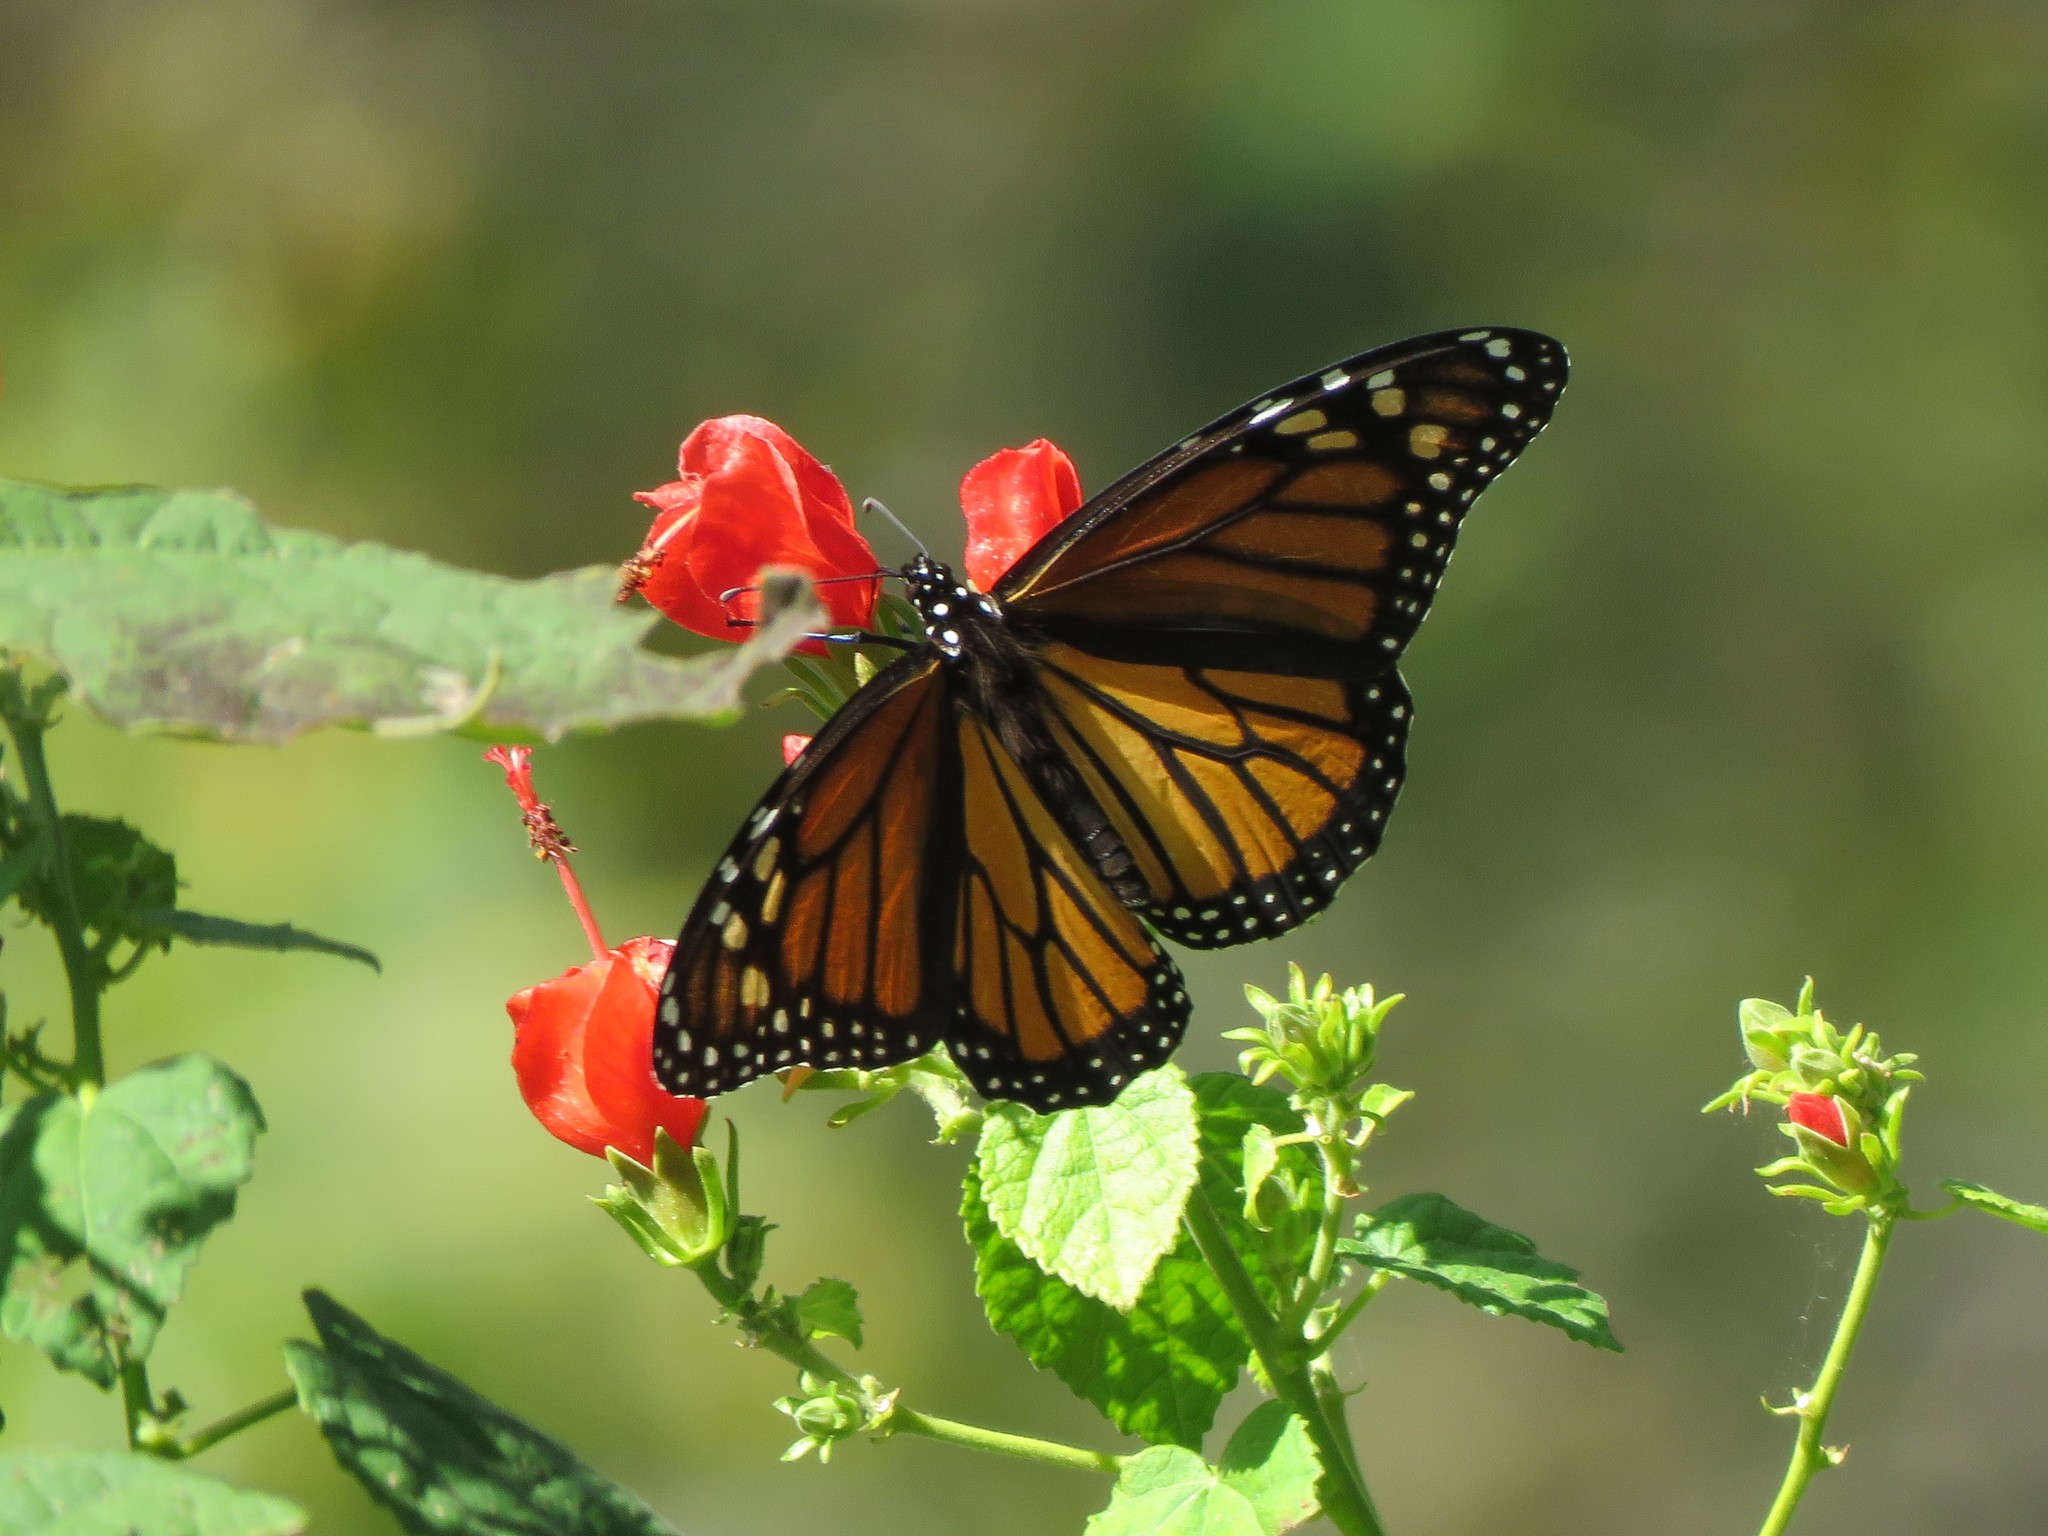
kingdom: Animalia
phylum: Arthropoda
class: Insecta
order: Lepidoptera
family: Nymphalidae
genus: Danaus
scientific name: Danaus plexippus
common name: Monarch
